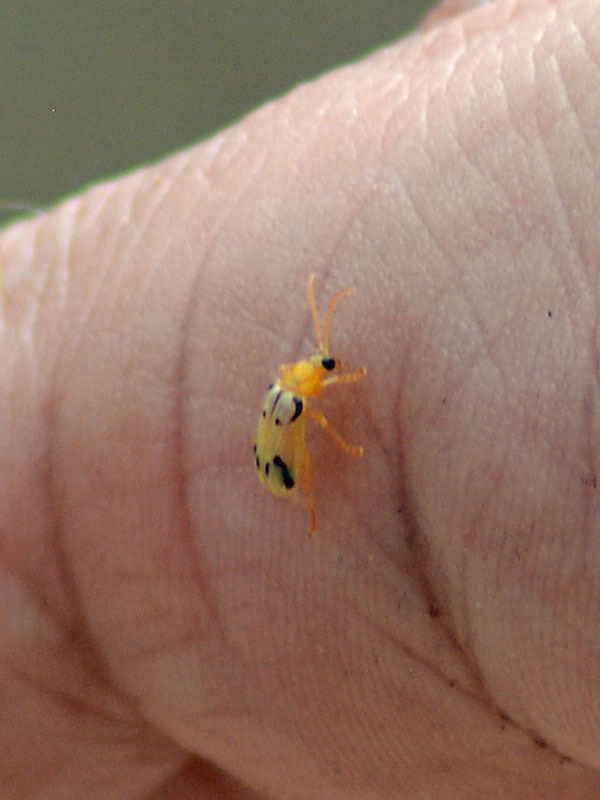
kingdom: Animalia
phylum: Arthropoda
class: Insecta
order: Coleoptera
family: Chrysomelidae
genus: Diabrotica
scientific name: Diabrotica
